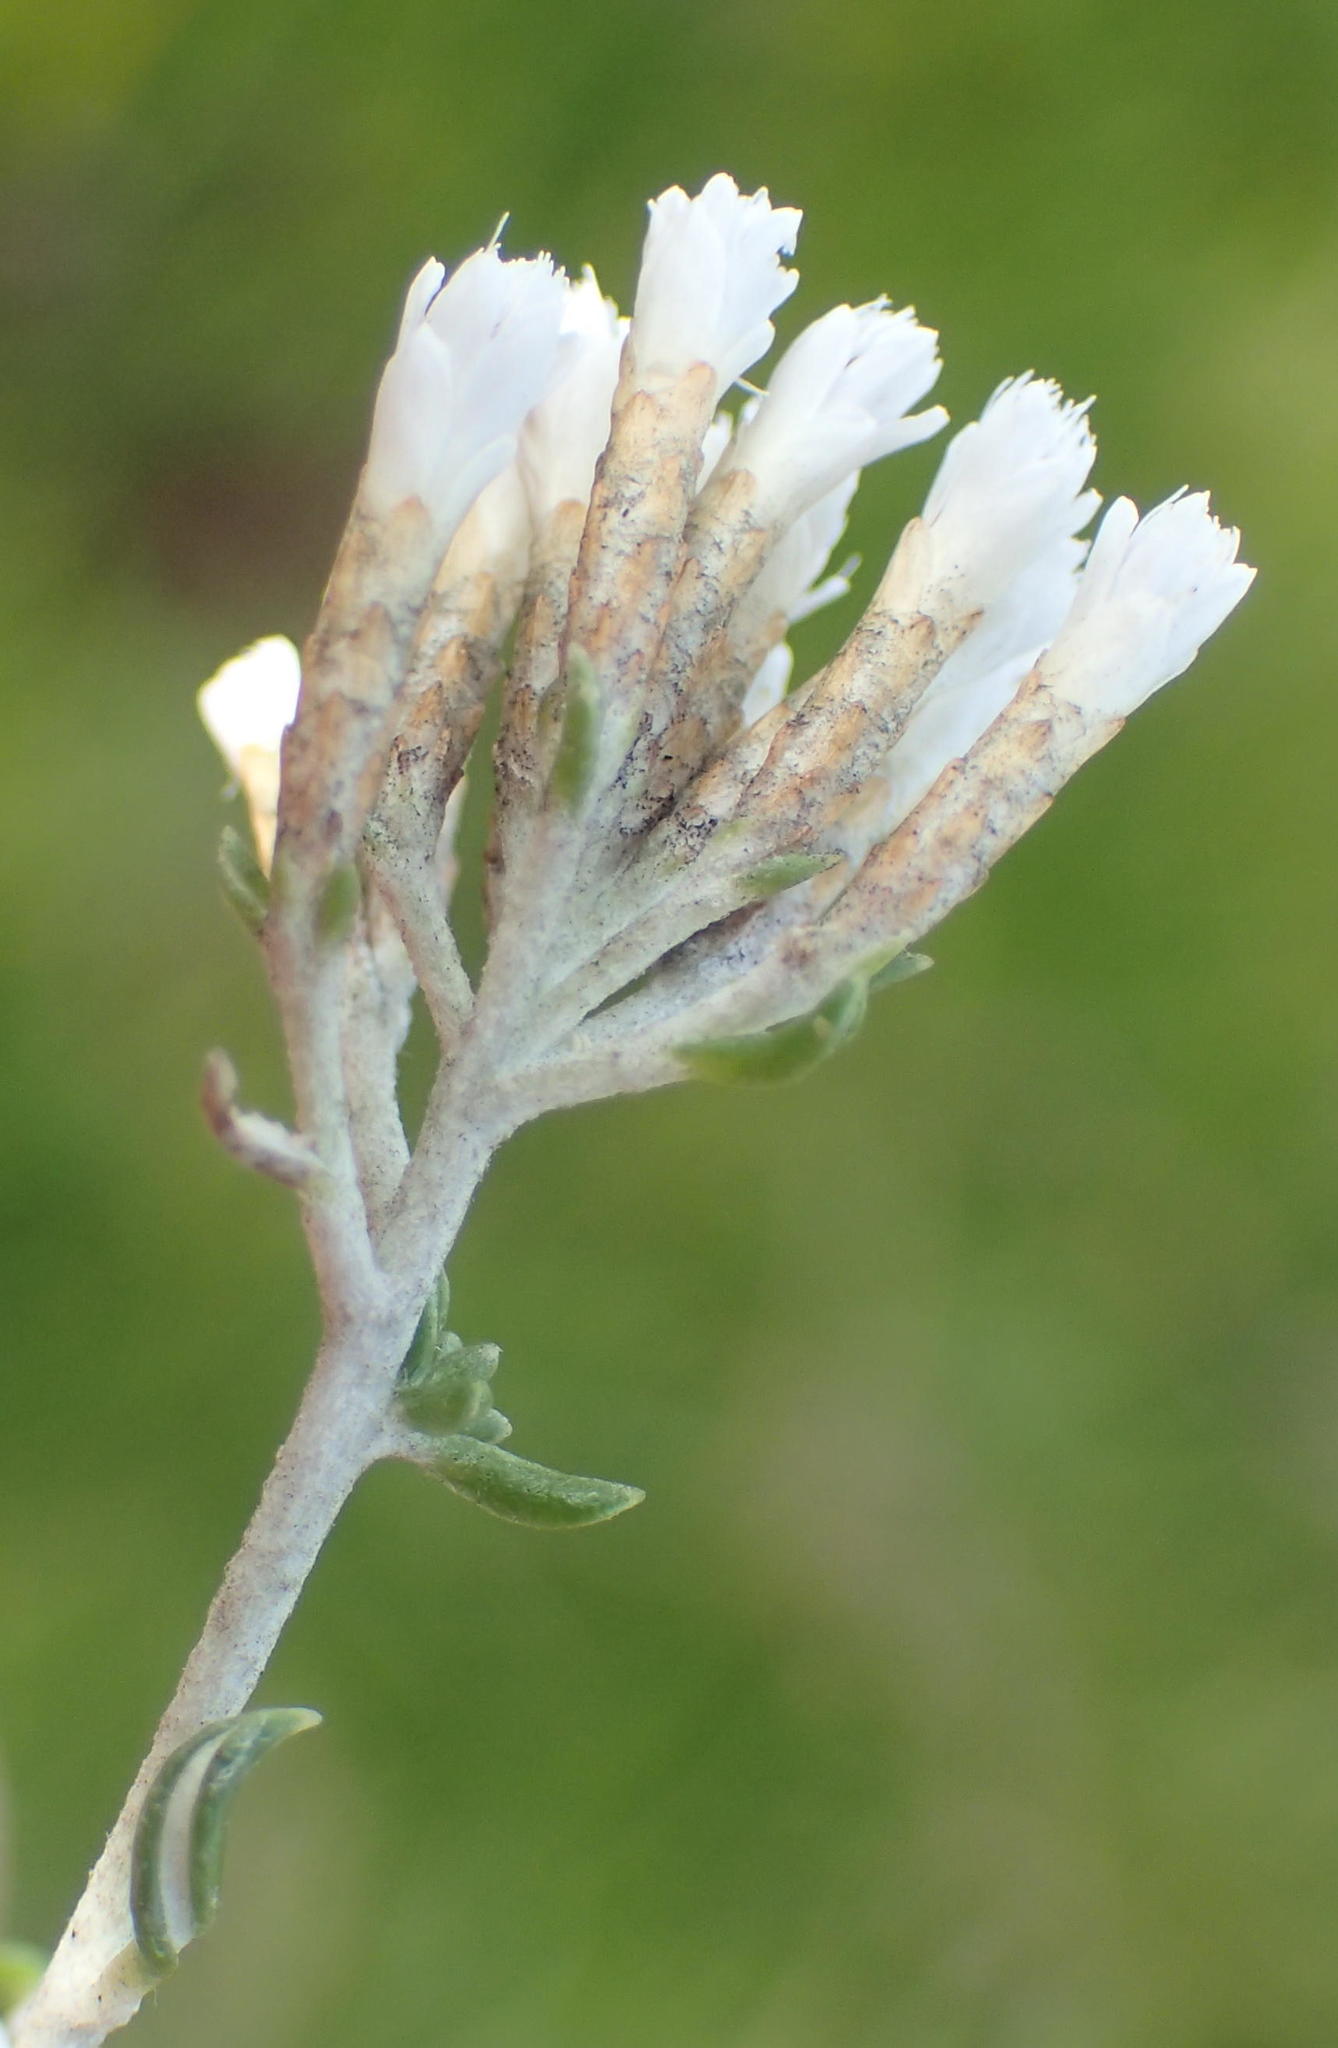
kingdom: Plantae
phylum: Tracheophyta
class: Magnoliopsida
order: Asterales
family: Asteraceae
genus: Metalasia
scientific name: Metalasia muricata
